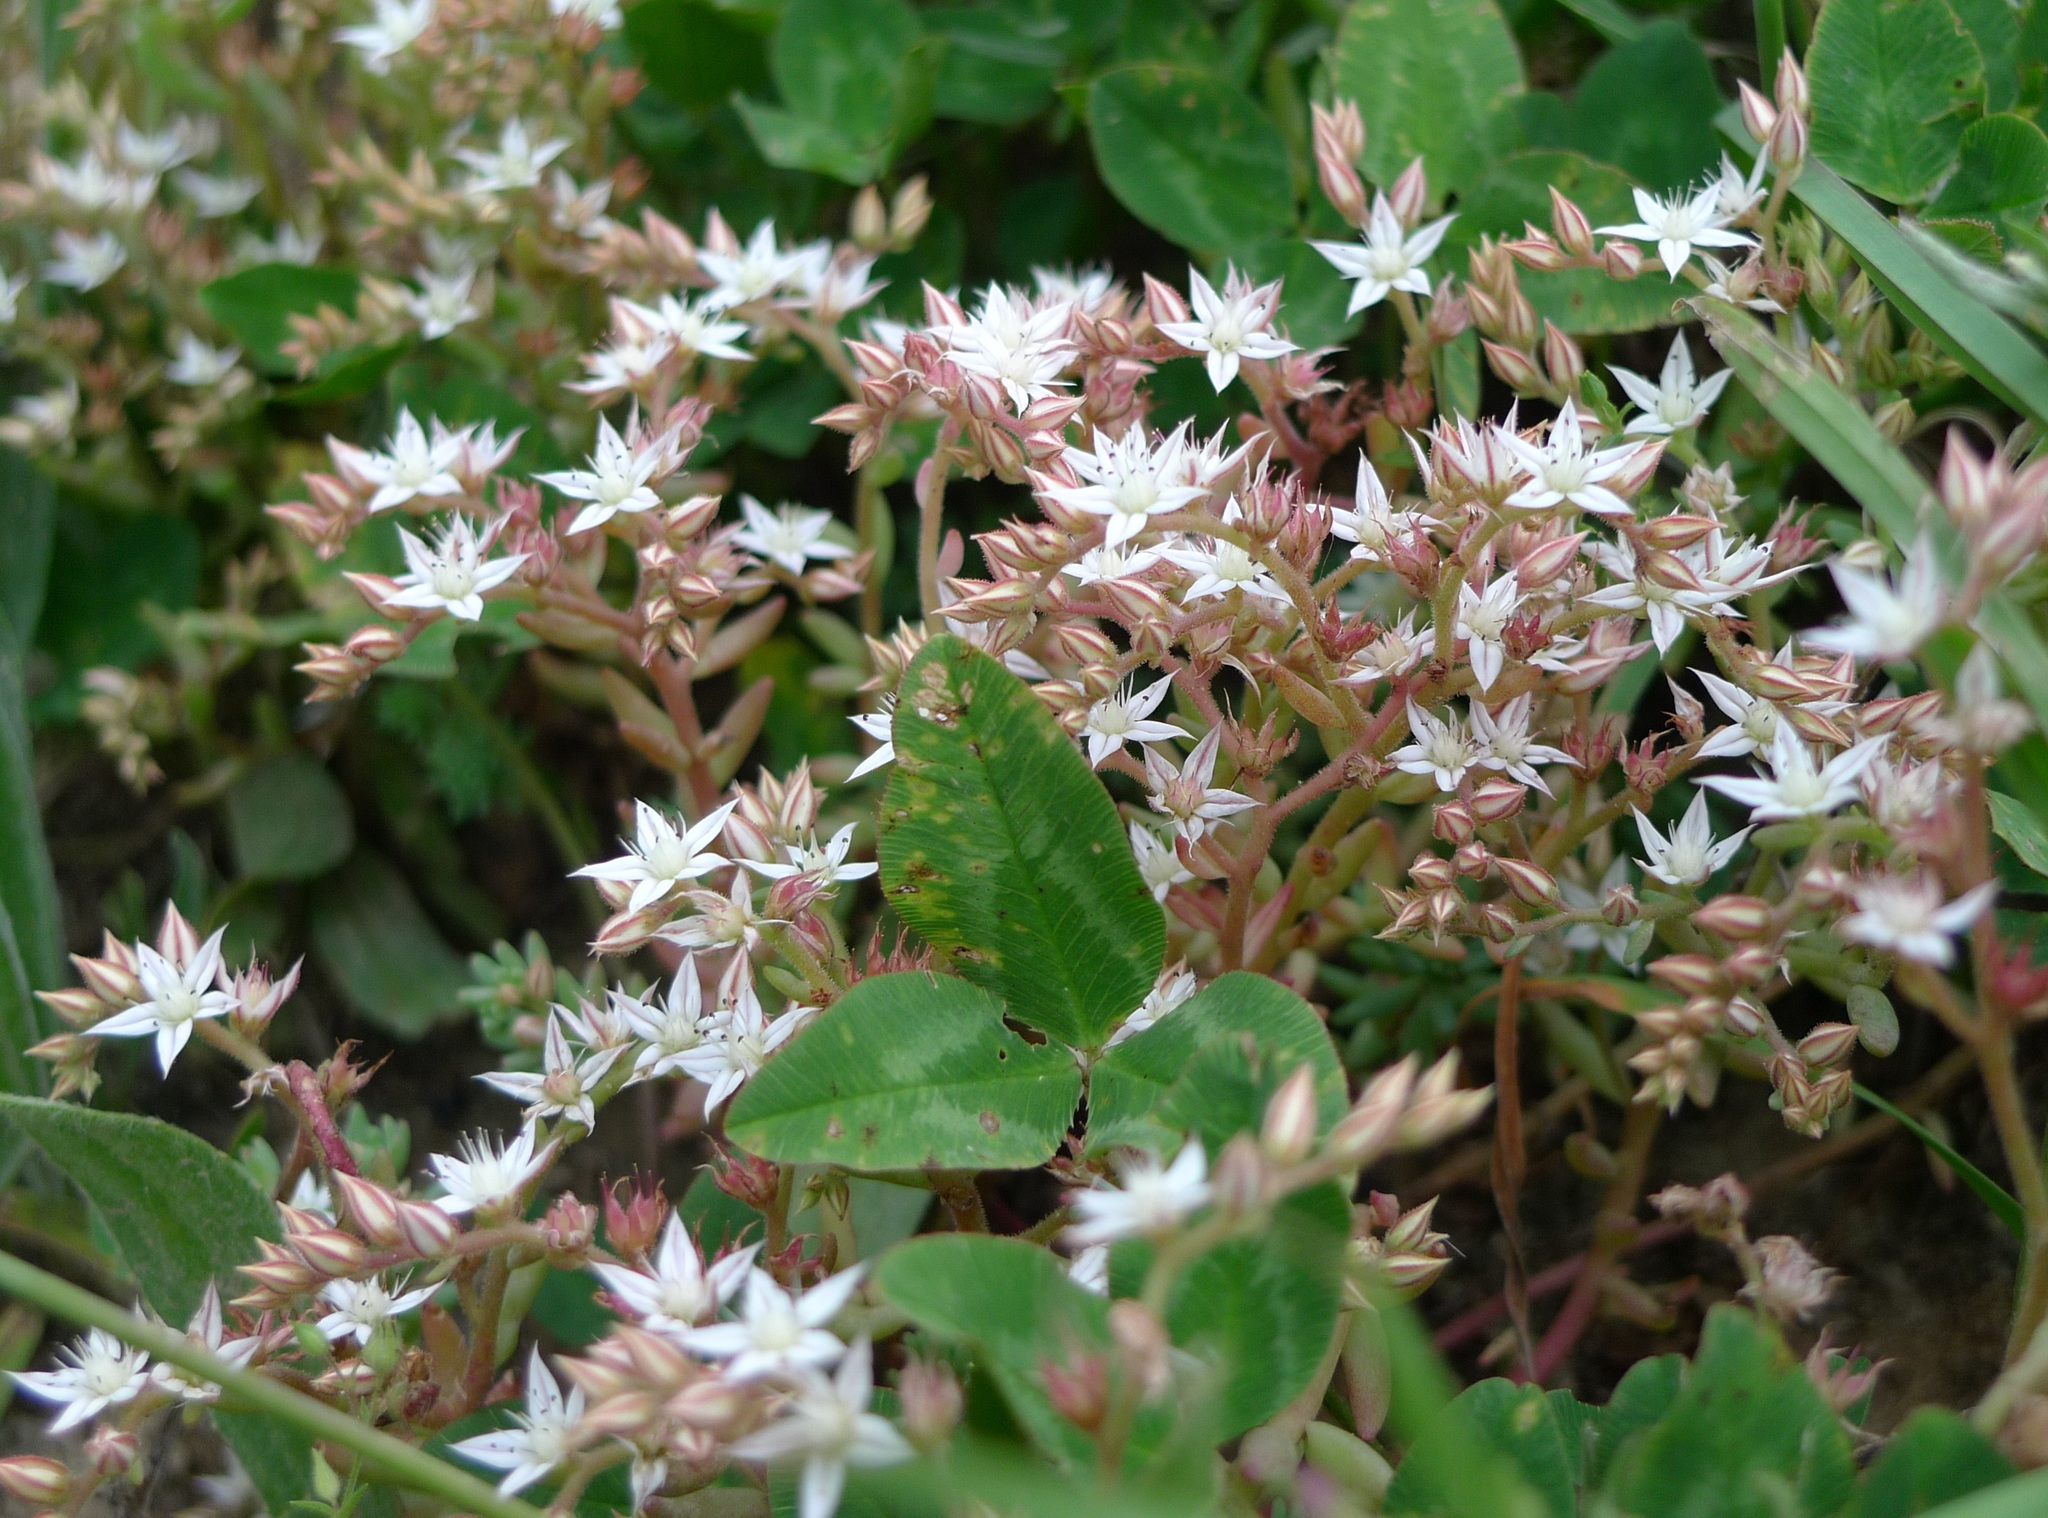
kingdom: Plantae
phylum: Tracheophyta
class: Magnoliopsida
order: Saxifragales
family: Crassulaceae
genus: Sedum
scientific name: Sedum pallidum
